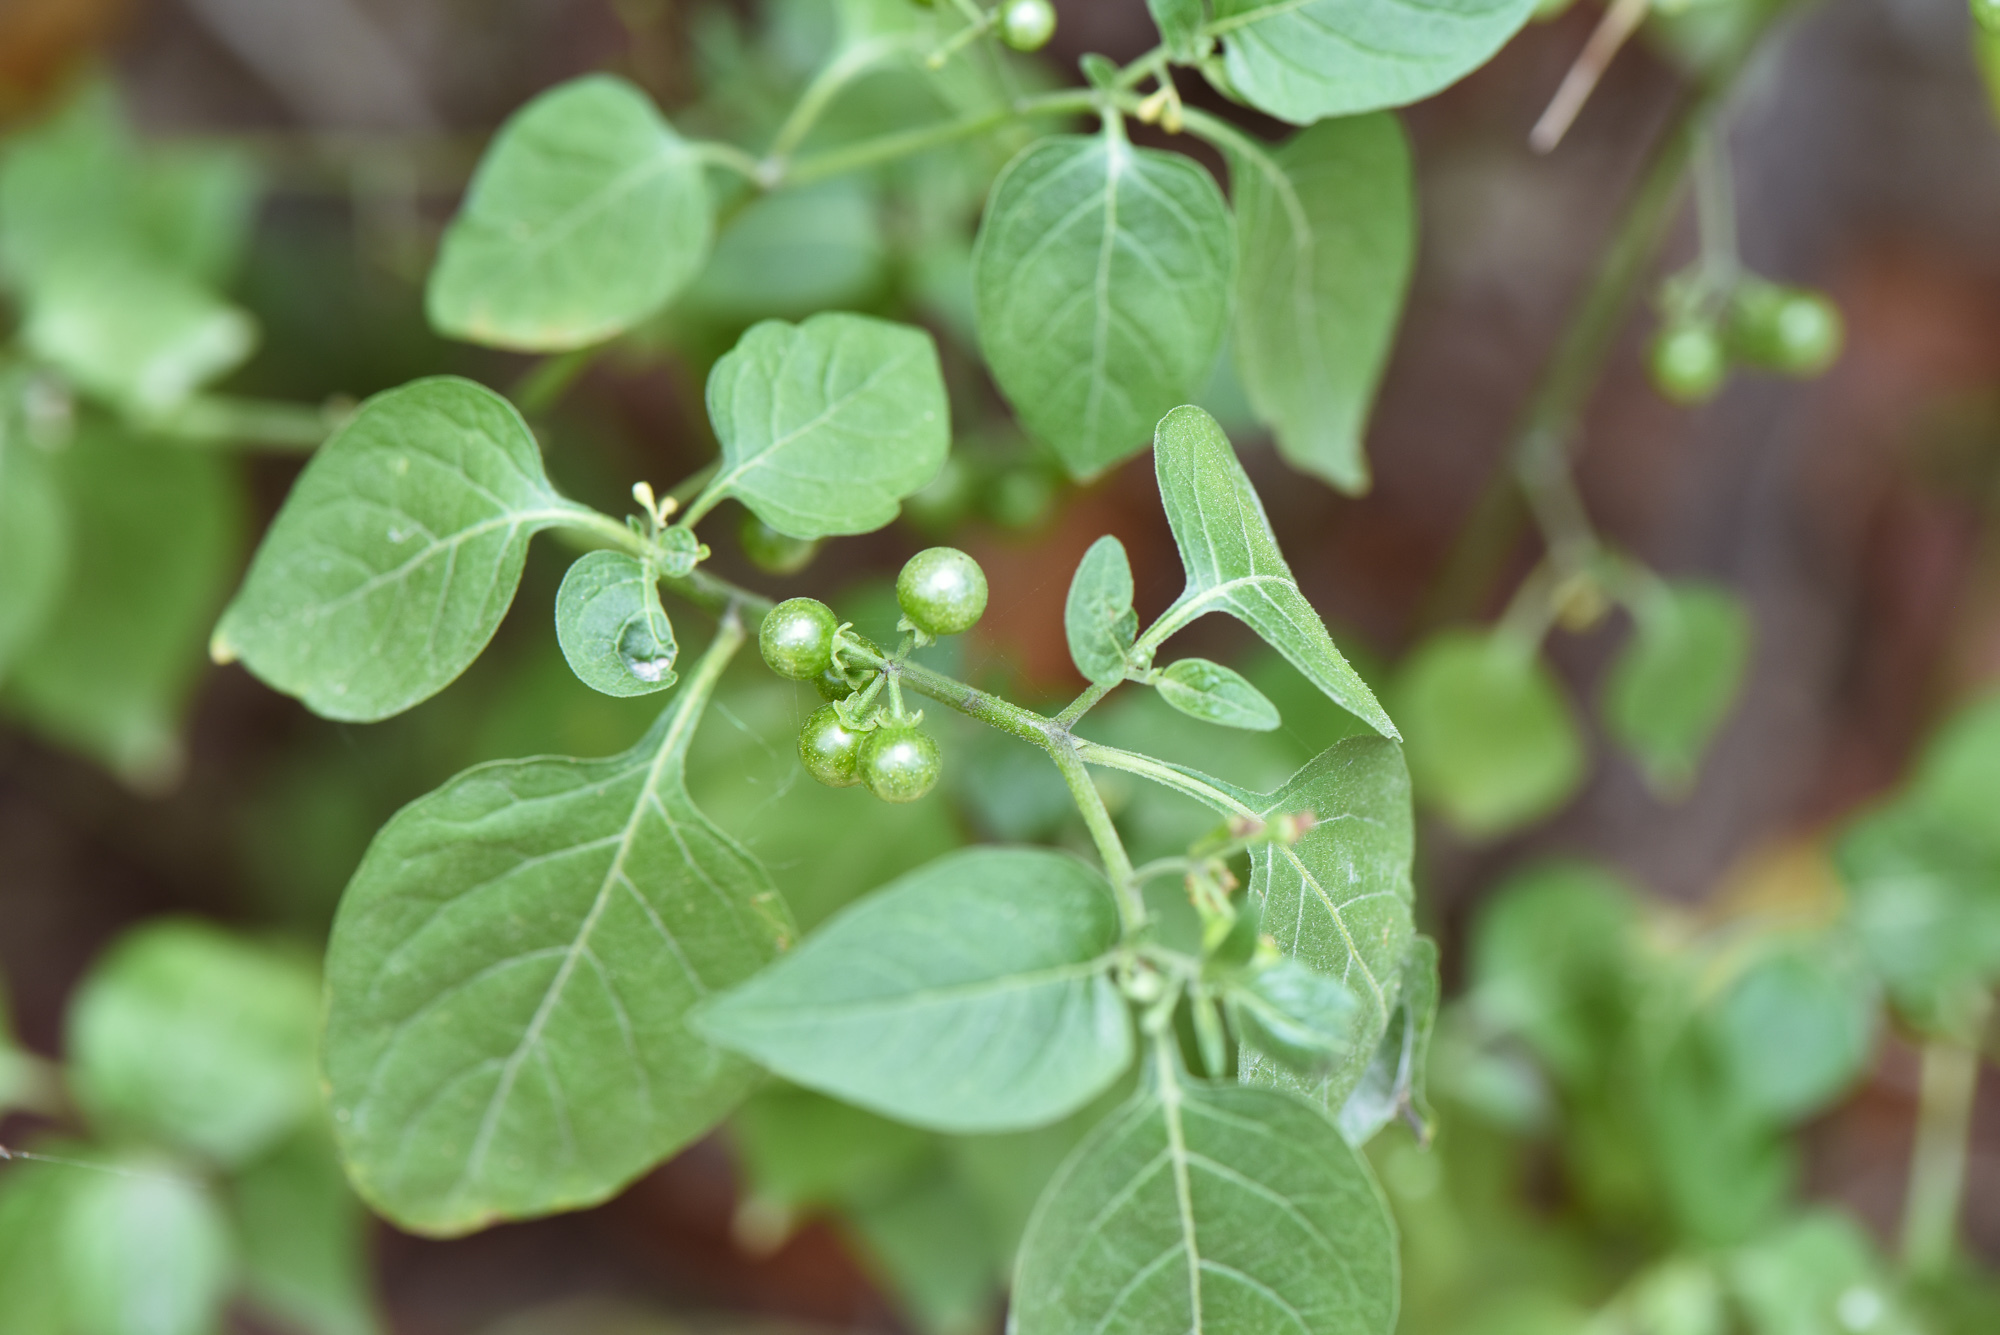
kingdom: Plantae
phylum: Tracheophyta
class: Magnoliopsida
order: Solanales
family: Solanaceae
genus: Solanum
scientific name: Solanum americanum
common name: American black nightshade
